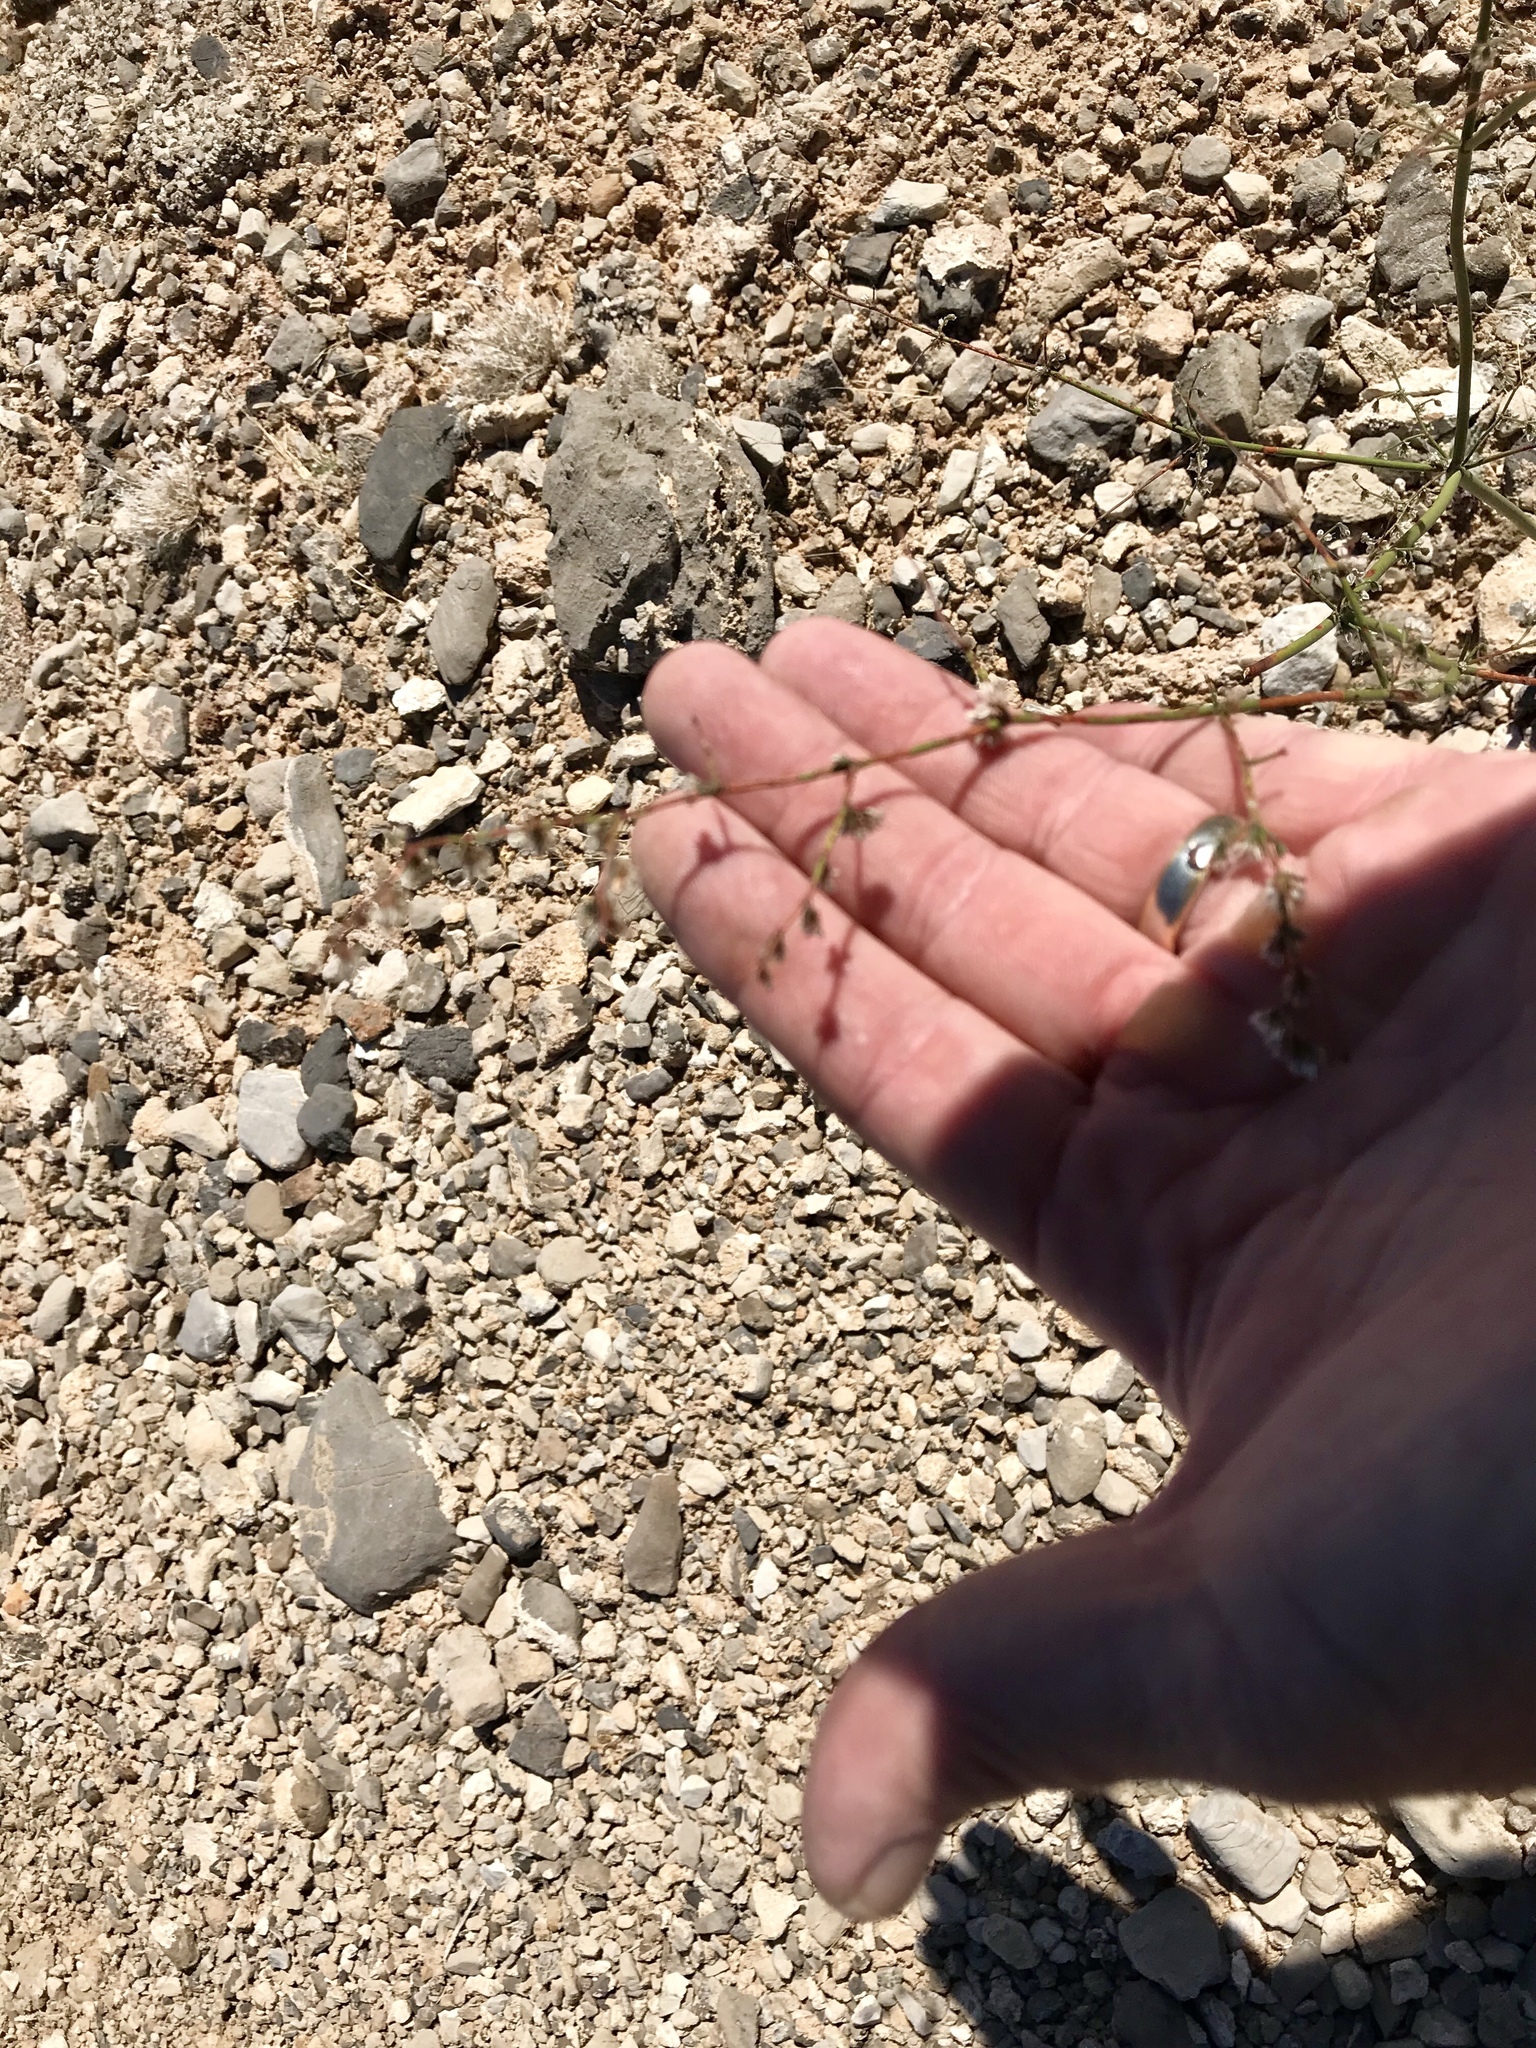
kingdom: Plantae
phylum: Tracheophyta
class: Magnoliopsida
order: Caryophyllales
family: Polygonaceae
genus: Eriogonum
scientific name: Eriogonum deflexum
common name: Skeleton-weed
